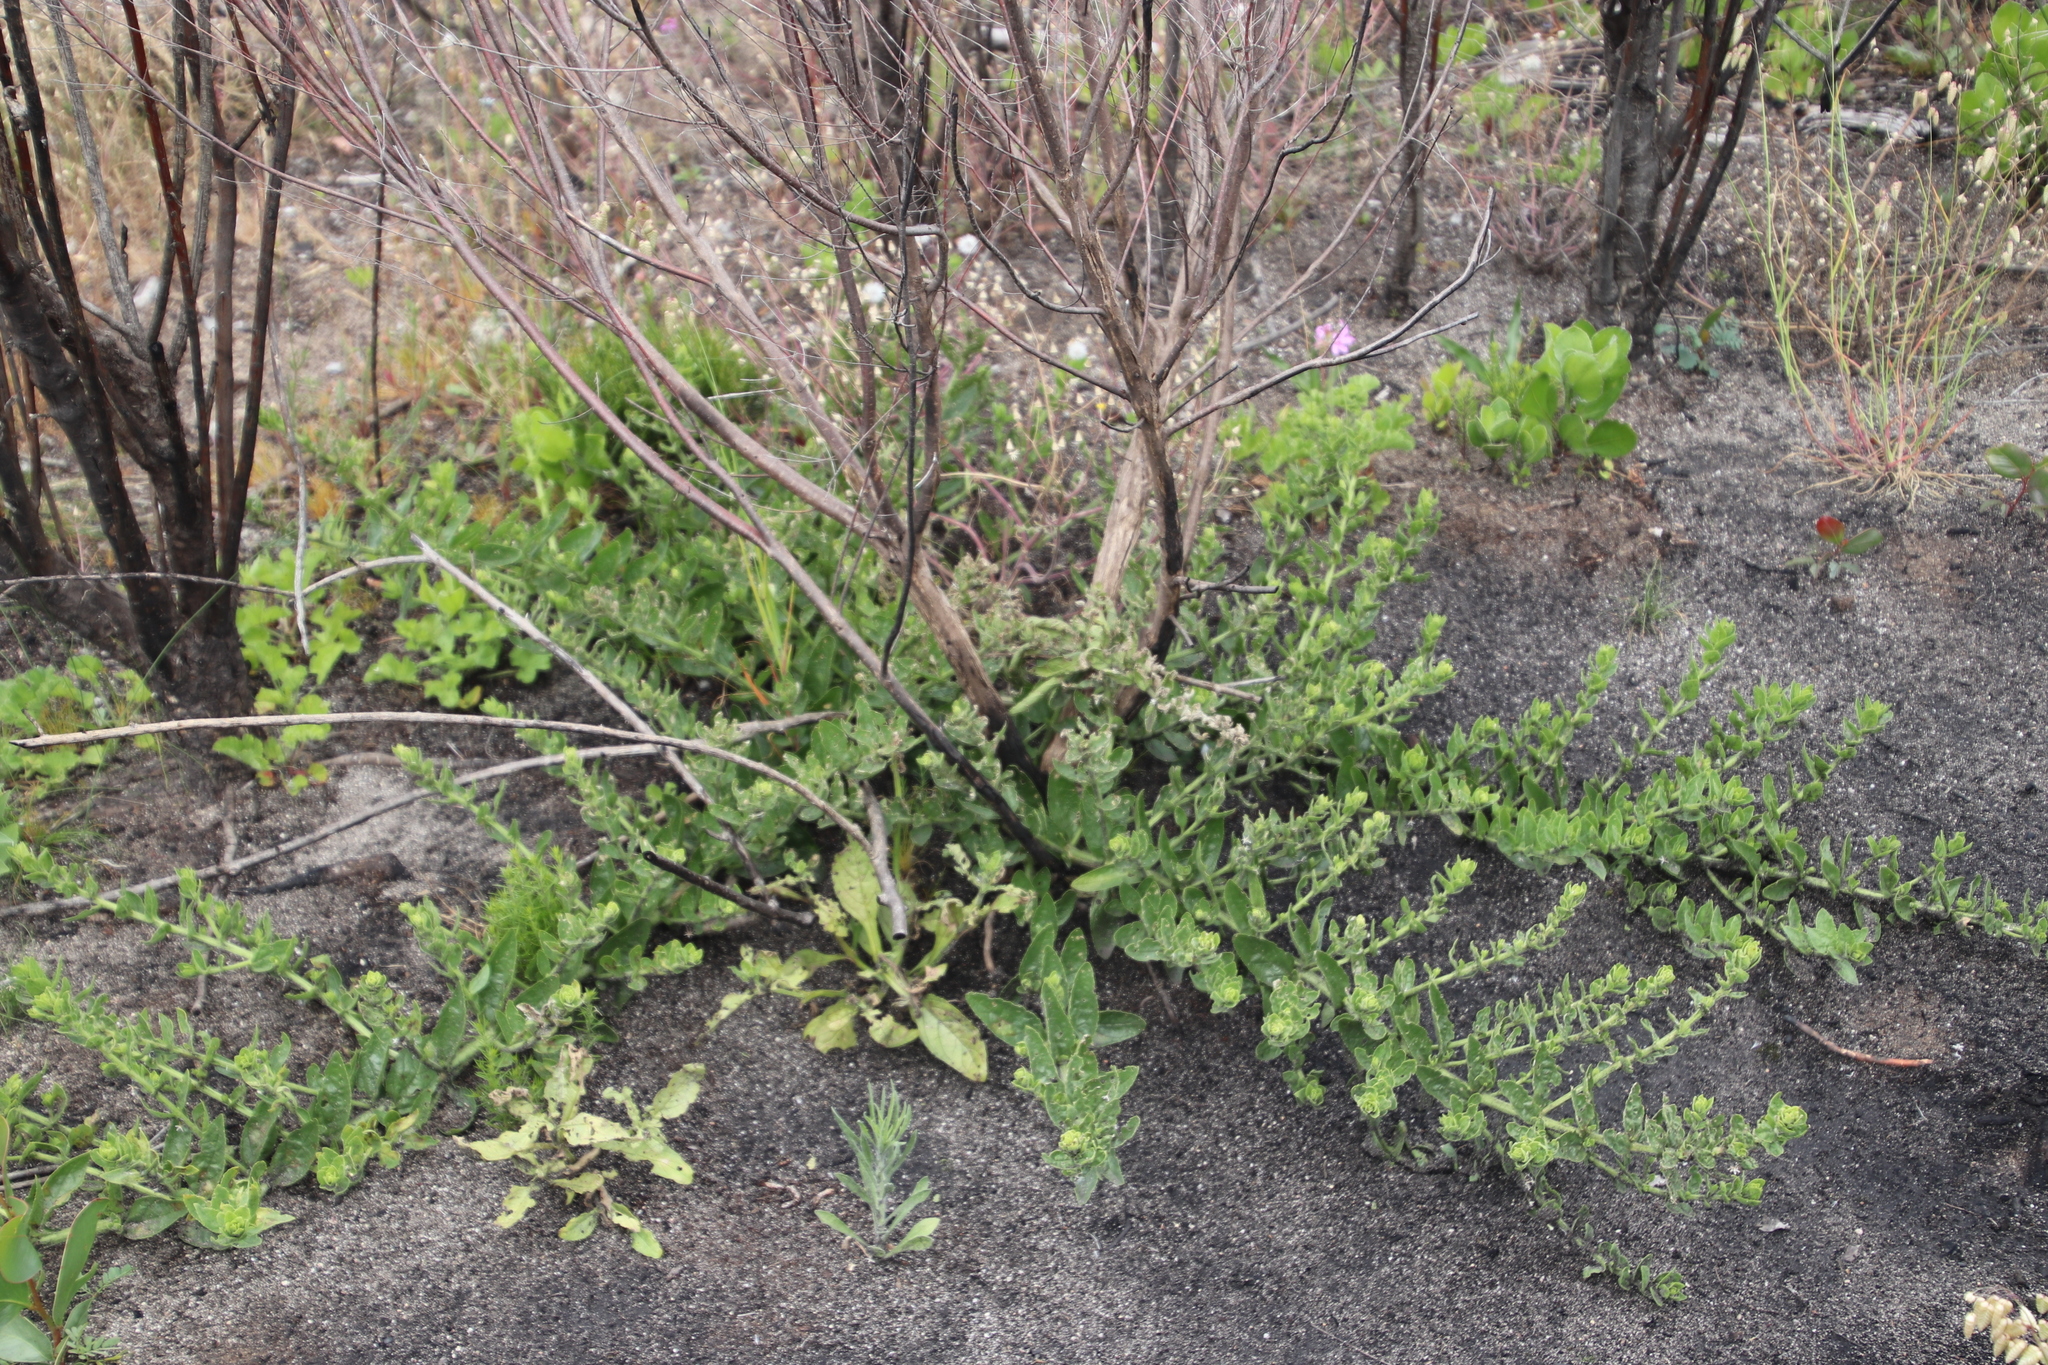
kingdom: Plantae
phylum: Tracheophyta
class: Magnoliopsida
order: Lamiales
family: Scrophulariaceae
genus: Oftia
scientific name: Oftia africana
